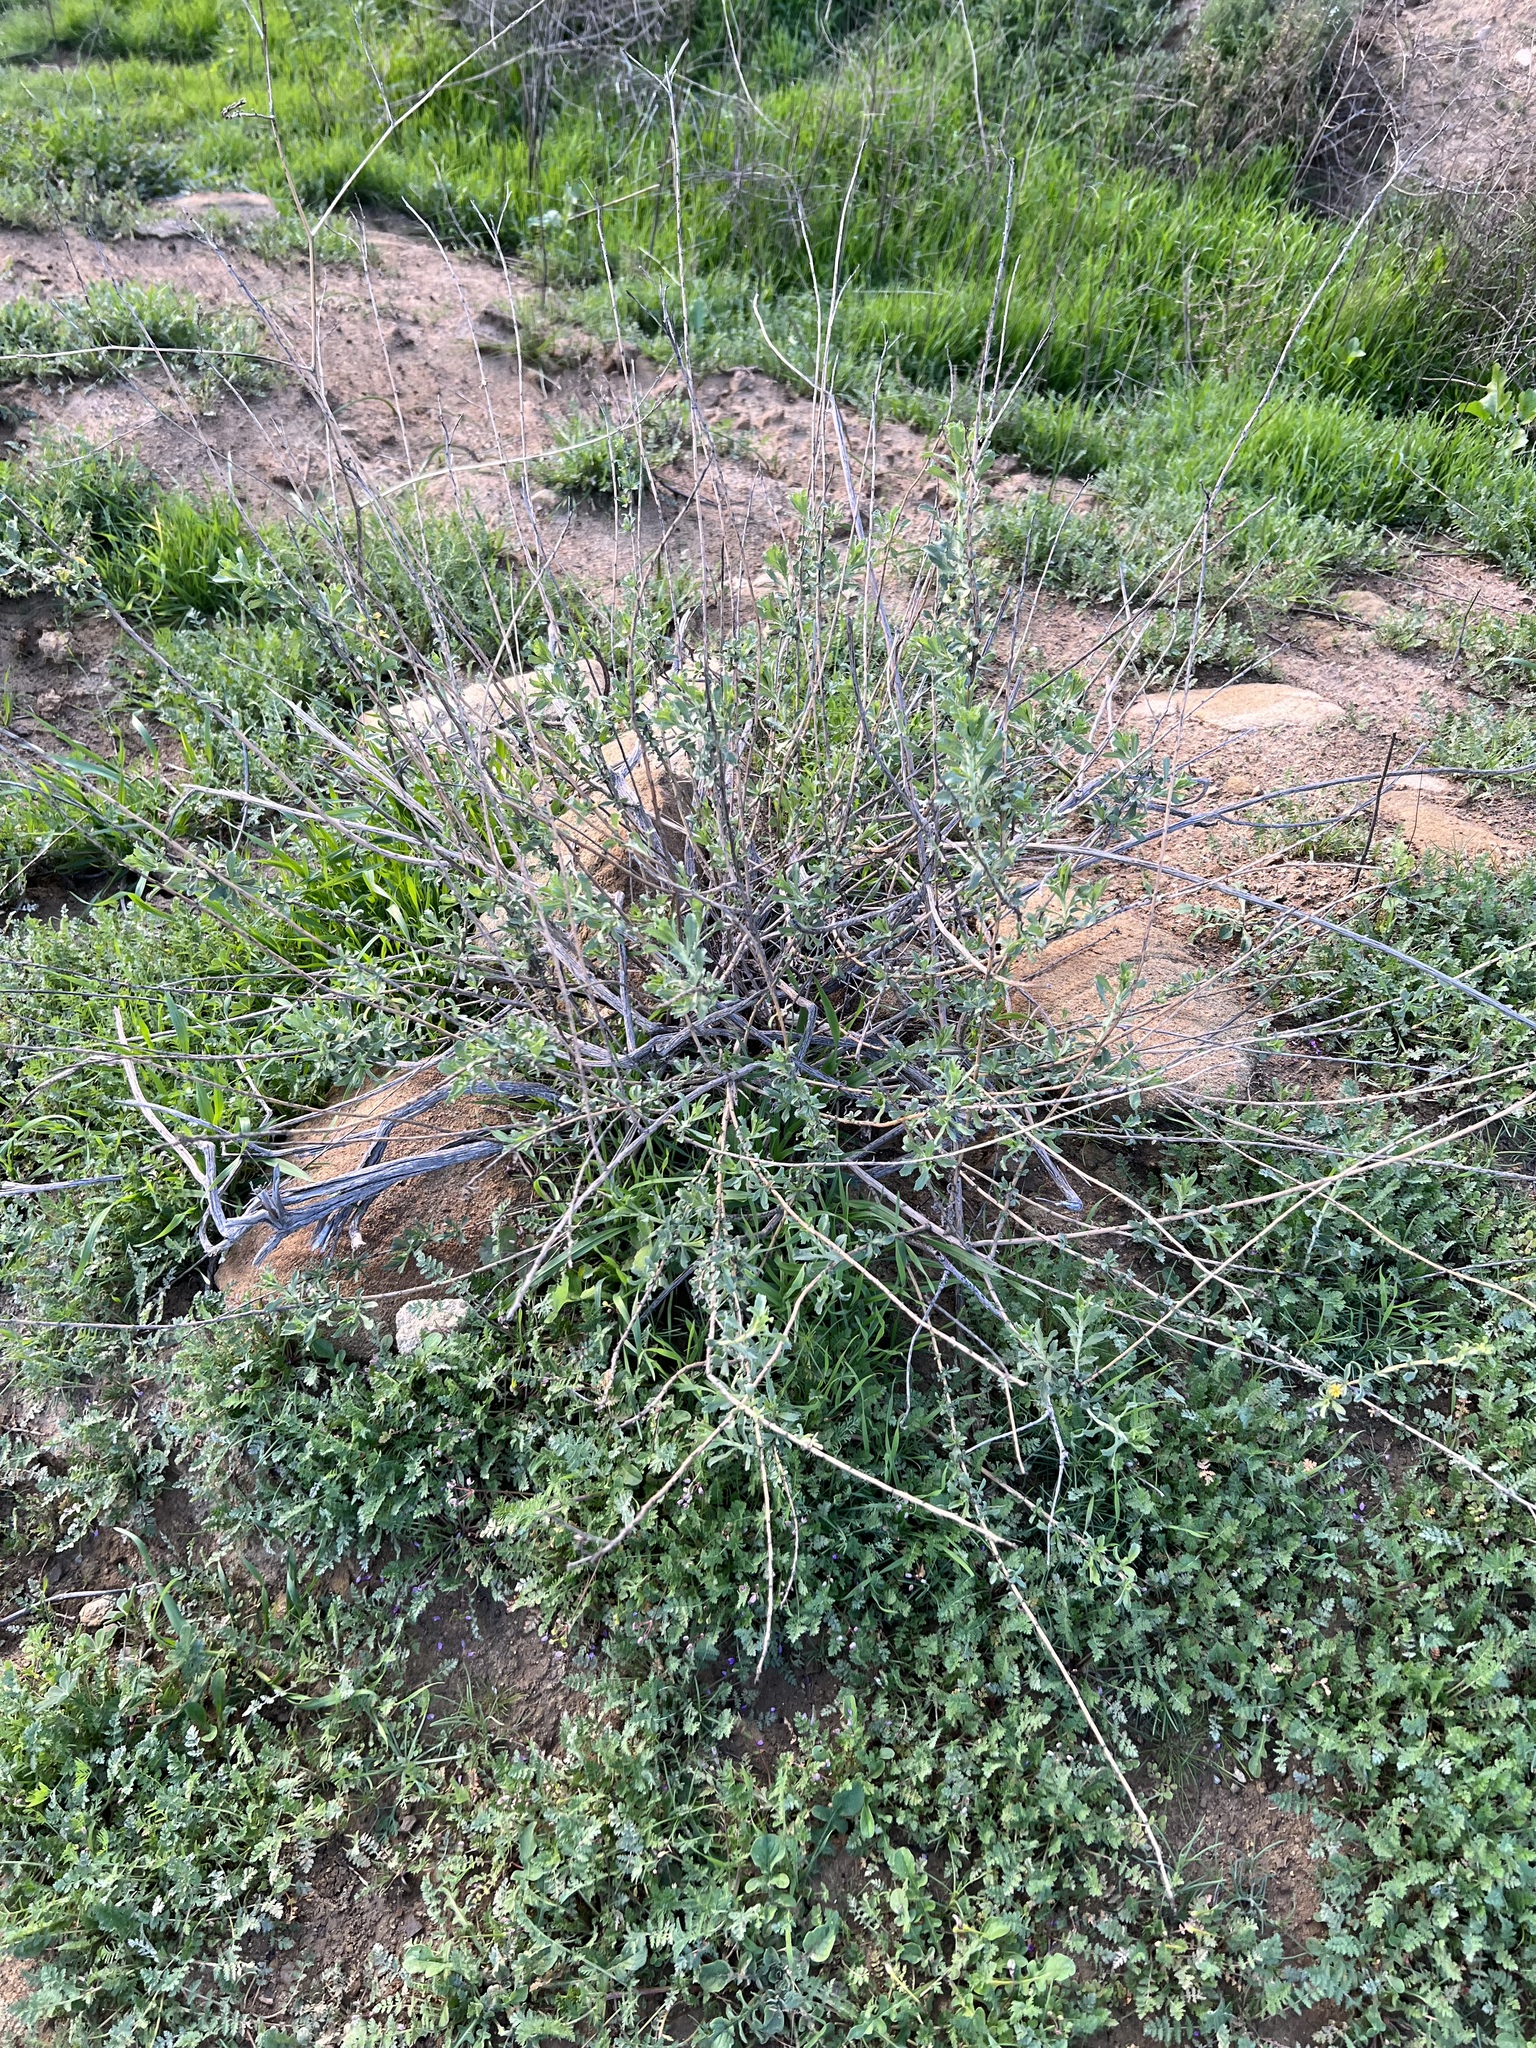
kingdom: Plantae
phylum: Tracheophyta
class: Magnoliopsida
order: Asterales
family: Asteraceae
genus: Isocoma
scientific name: Isocoma menziesii
